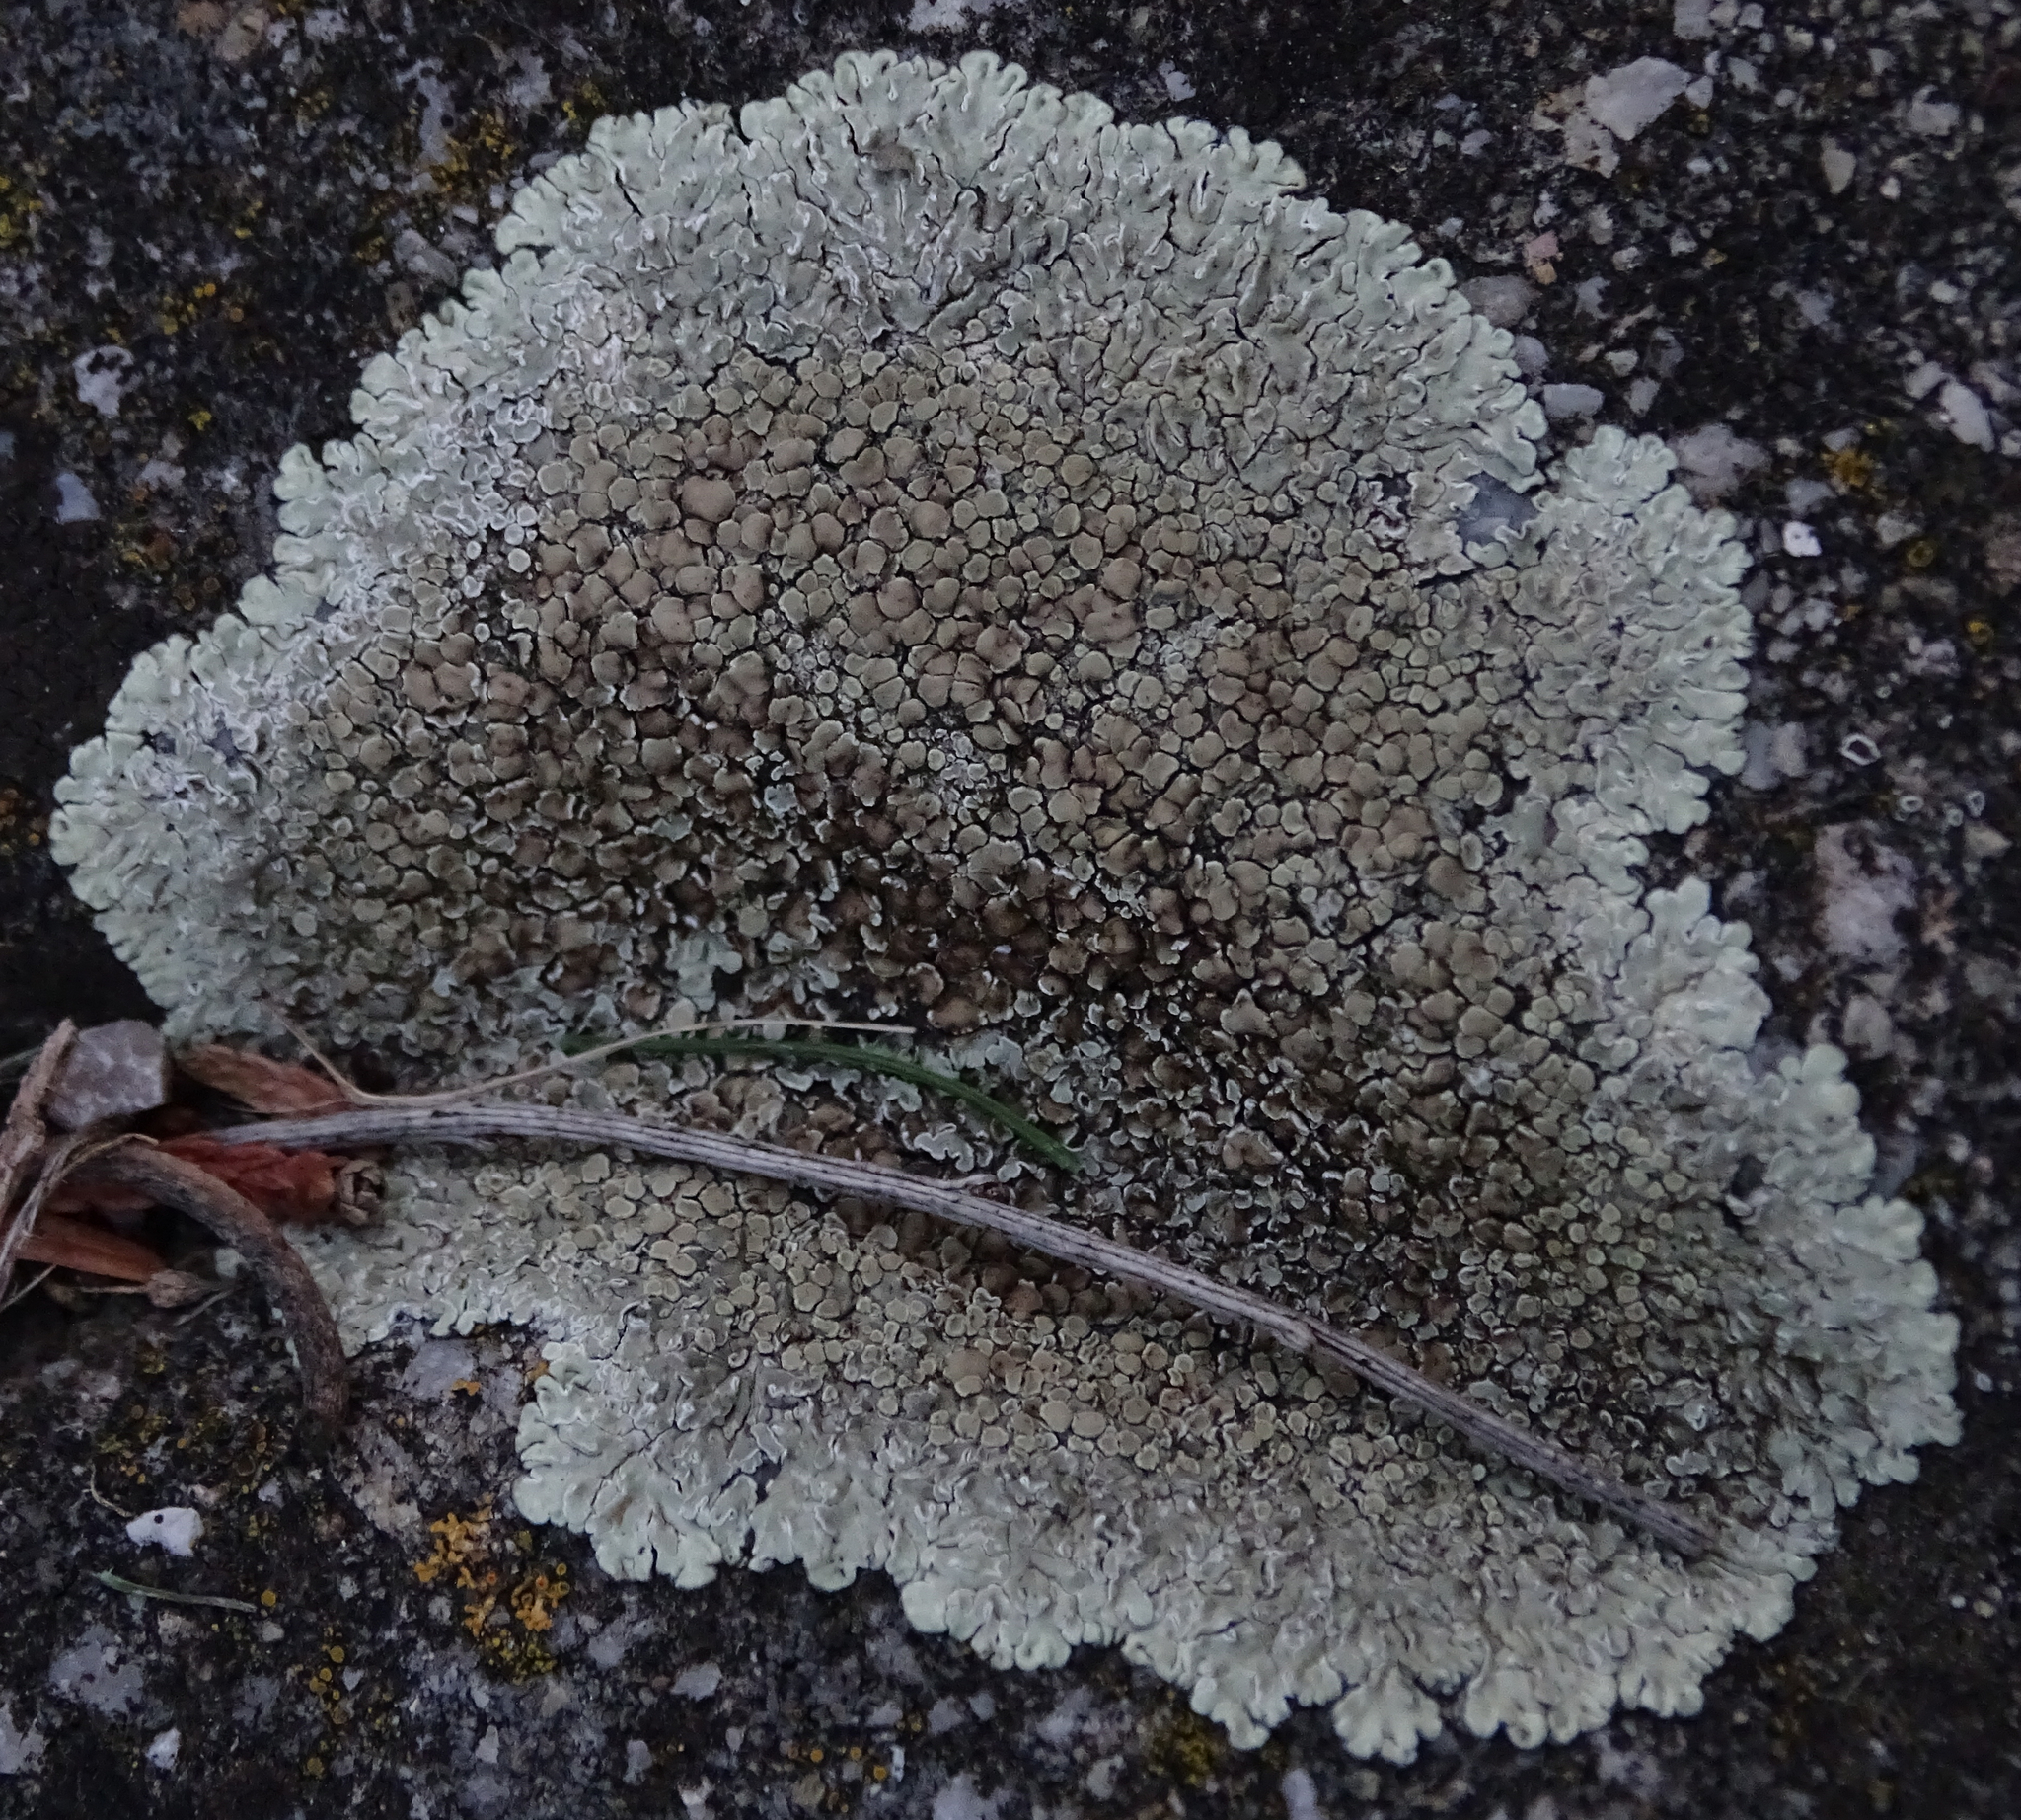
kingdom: Fungi
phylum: Ascomycota
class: Lecanoromycetes
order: Lecanorales
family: Lecanoraceae
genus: Protoparmeliopsis
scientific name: Protoparmeliopsis muralis
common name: Stonewall rim lichen
